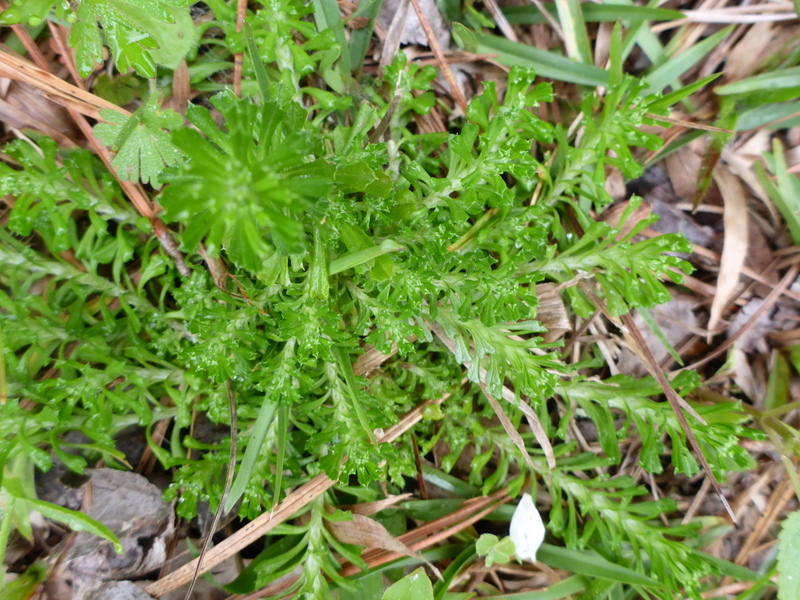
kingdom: Plantae
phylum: Tracheophyta
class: Magnoliopsida
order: Asterales
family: Asteraceae
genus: Facelis
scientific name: Facelis retusa
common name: Annual trampweed
